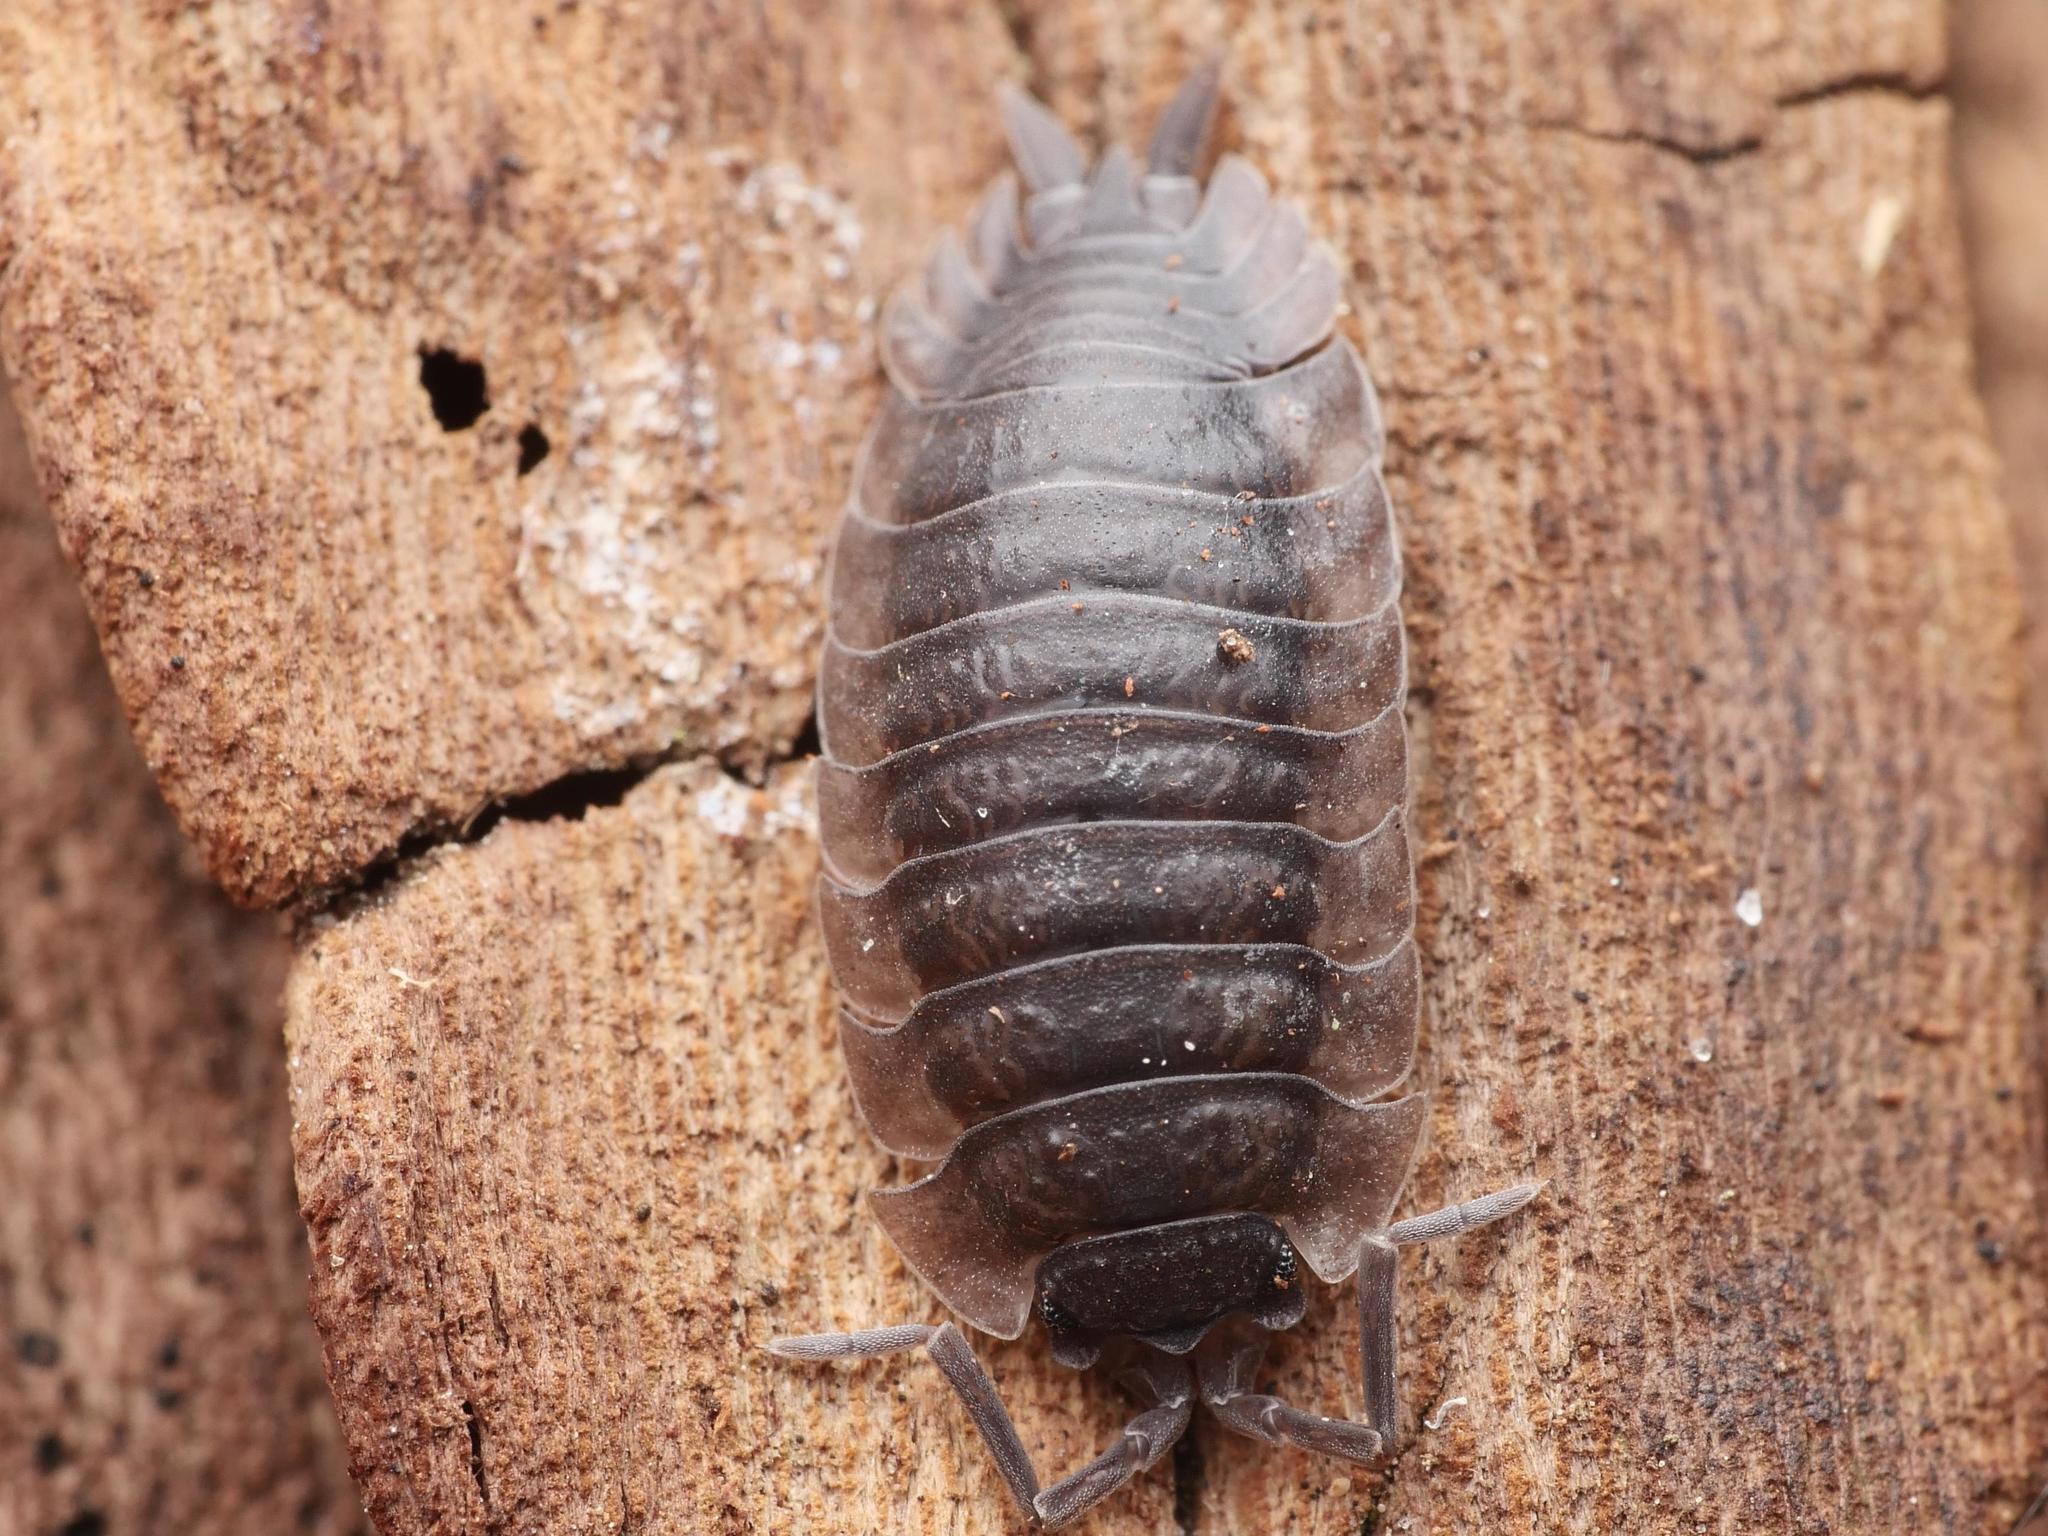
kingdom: Animalia
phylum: Arthropoda
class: Malacostraca
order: Isopoda
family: Porcellionidae
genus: Porcellio
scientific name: Porcellio scaber
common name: Common rough woodlouse
